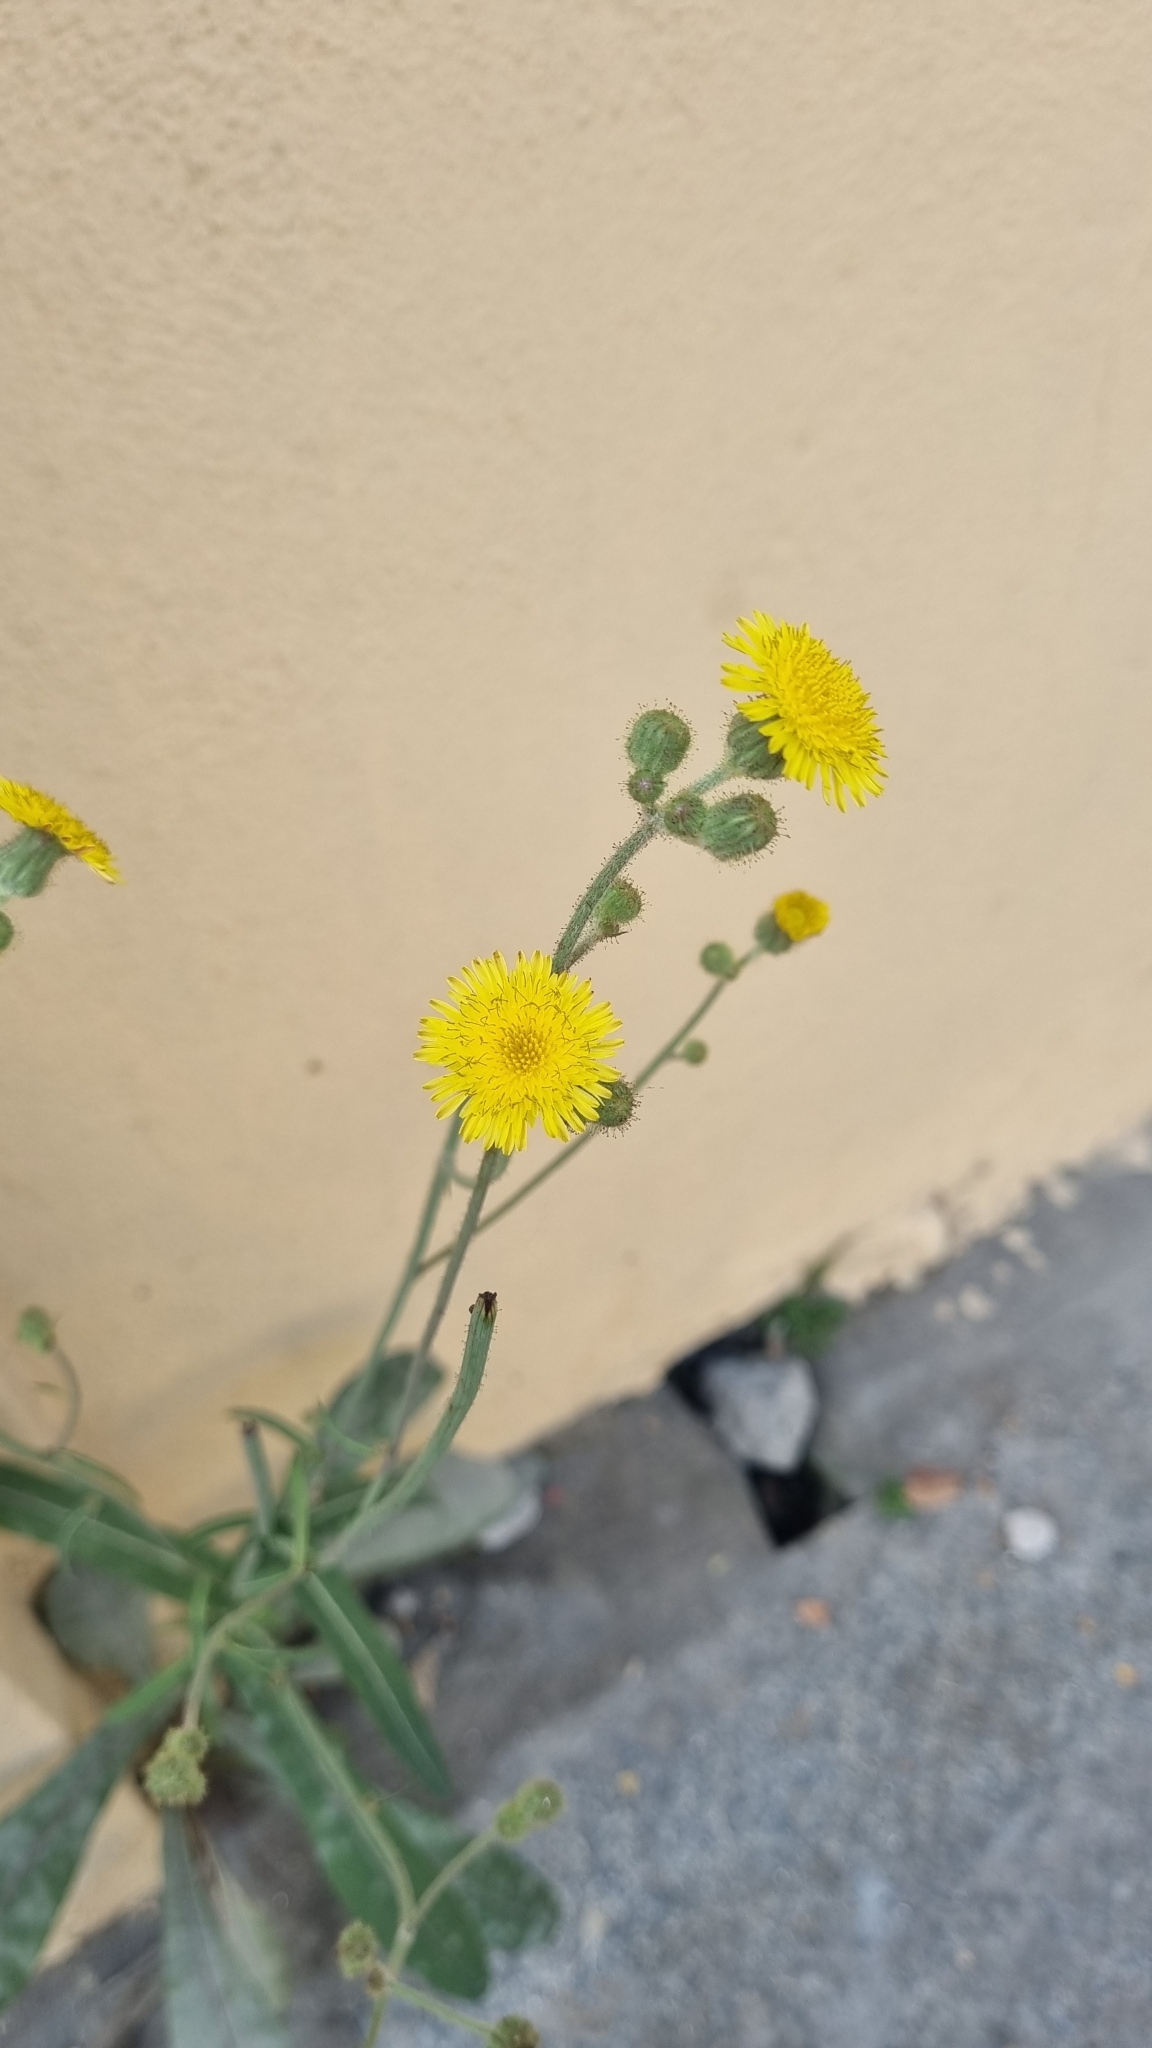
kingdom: Plantae
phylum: Tracheophyta
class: Magnoliopsida
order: Asterales
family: Asteraceae
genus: Sonchus
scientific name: Sonchus arvensis
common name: Perennial sow-thistle
